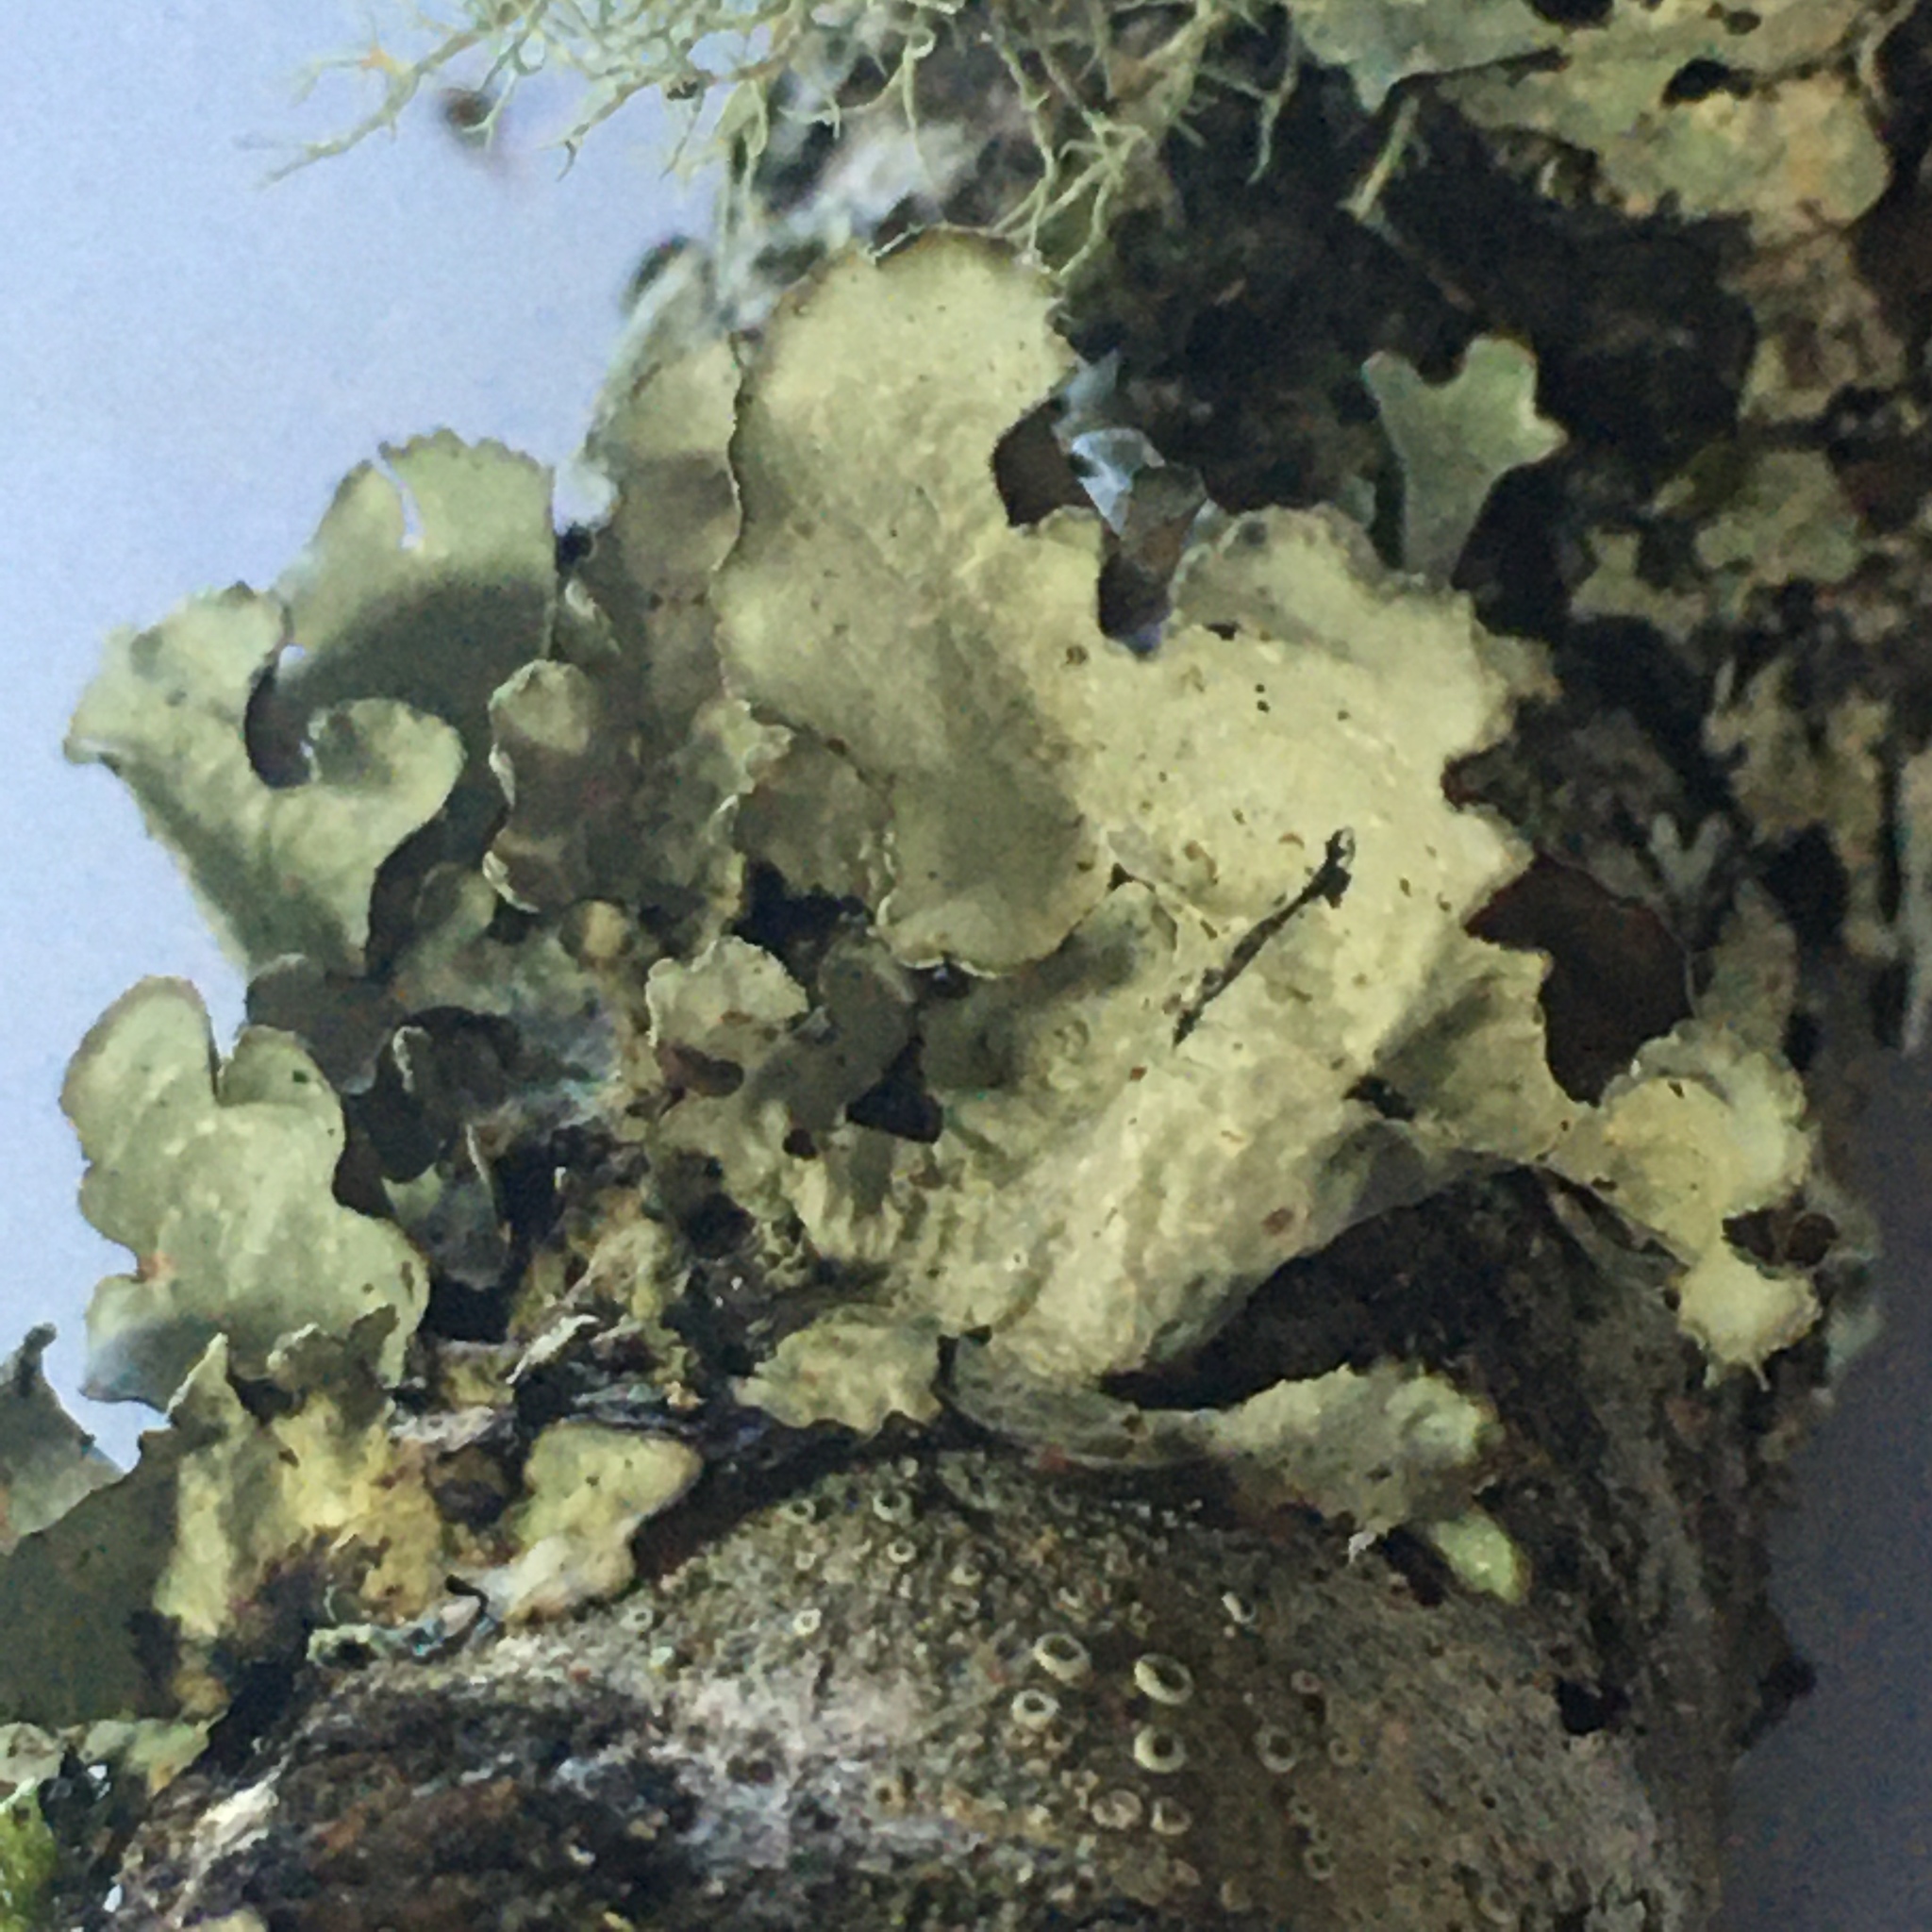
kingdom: Fungi
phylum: Ascomycota
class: Lecanoromycetes
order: Lecanorales
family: Parmeliaceae
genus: Cetrelia
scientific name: Cetrelia cetrarioides
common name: Speckled iceland lichen
